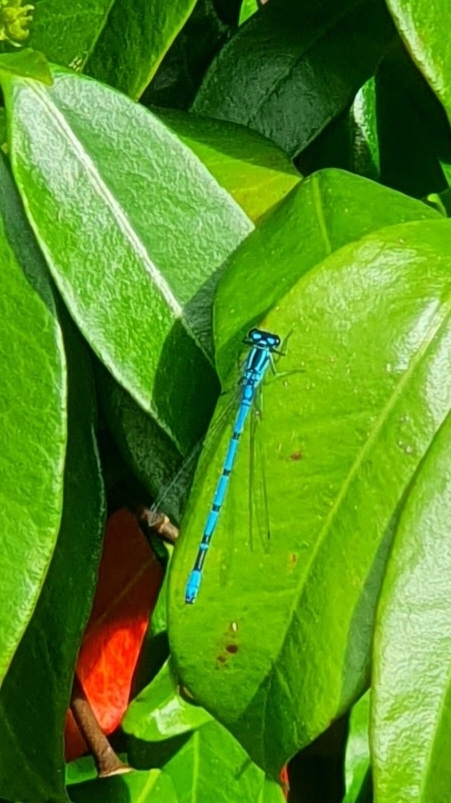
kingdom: Animalia
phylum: Arthropoda
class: Insecta
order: Odonata
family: Coenagrionidae
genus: Coenagrion
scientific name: Coenagrion puella
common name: Azure damselfly
